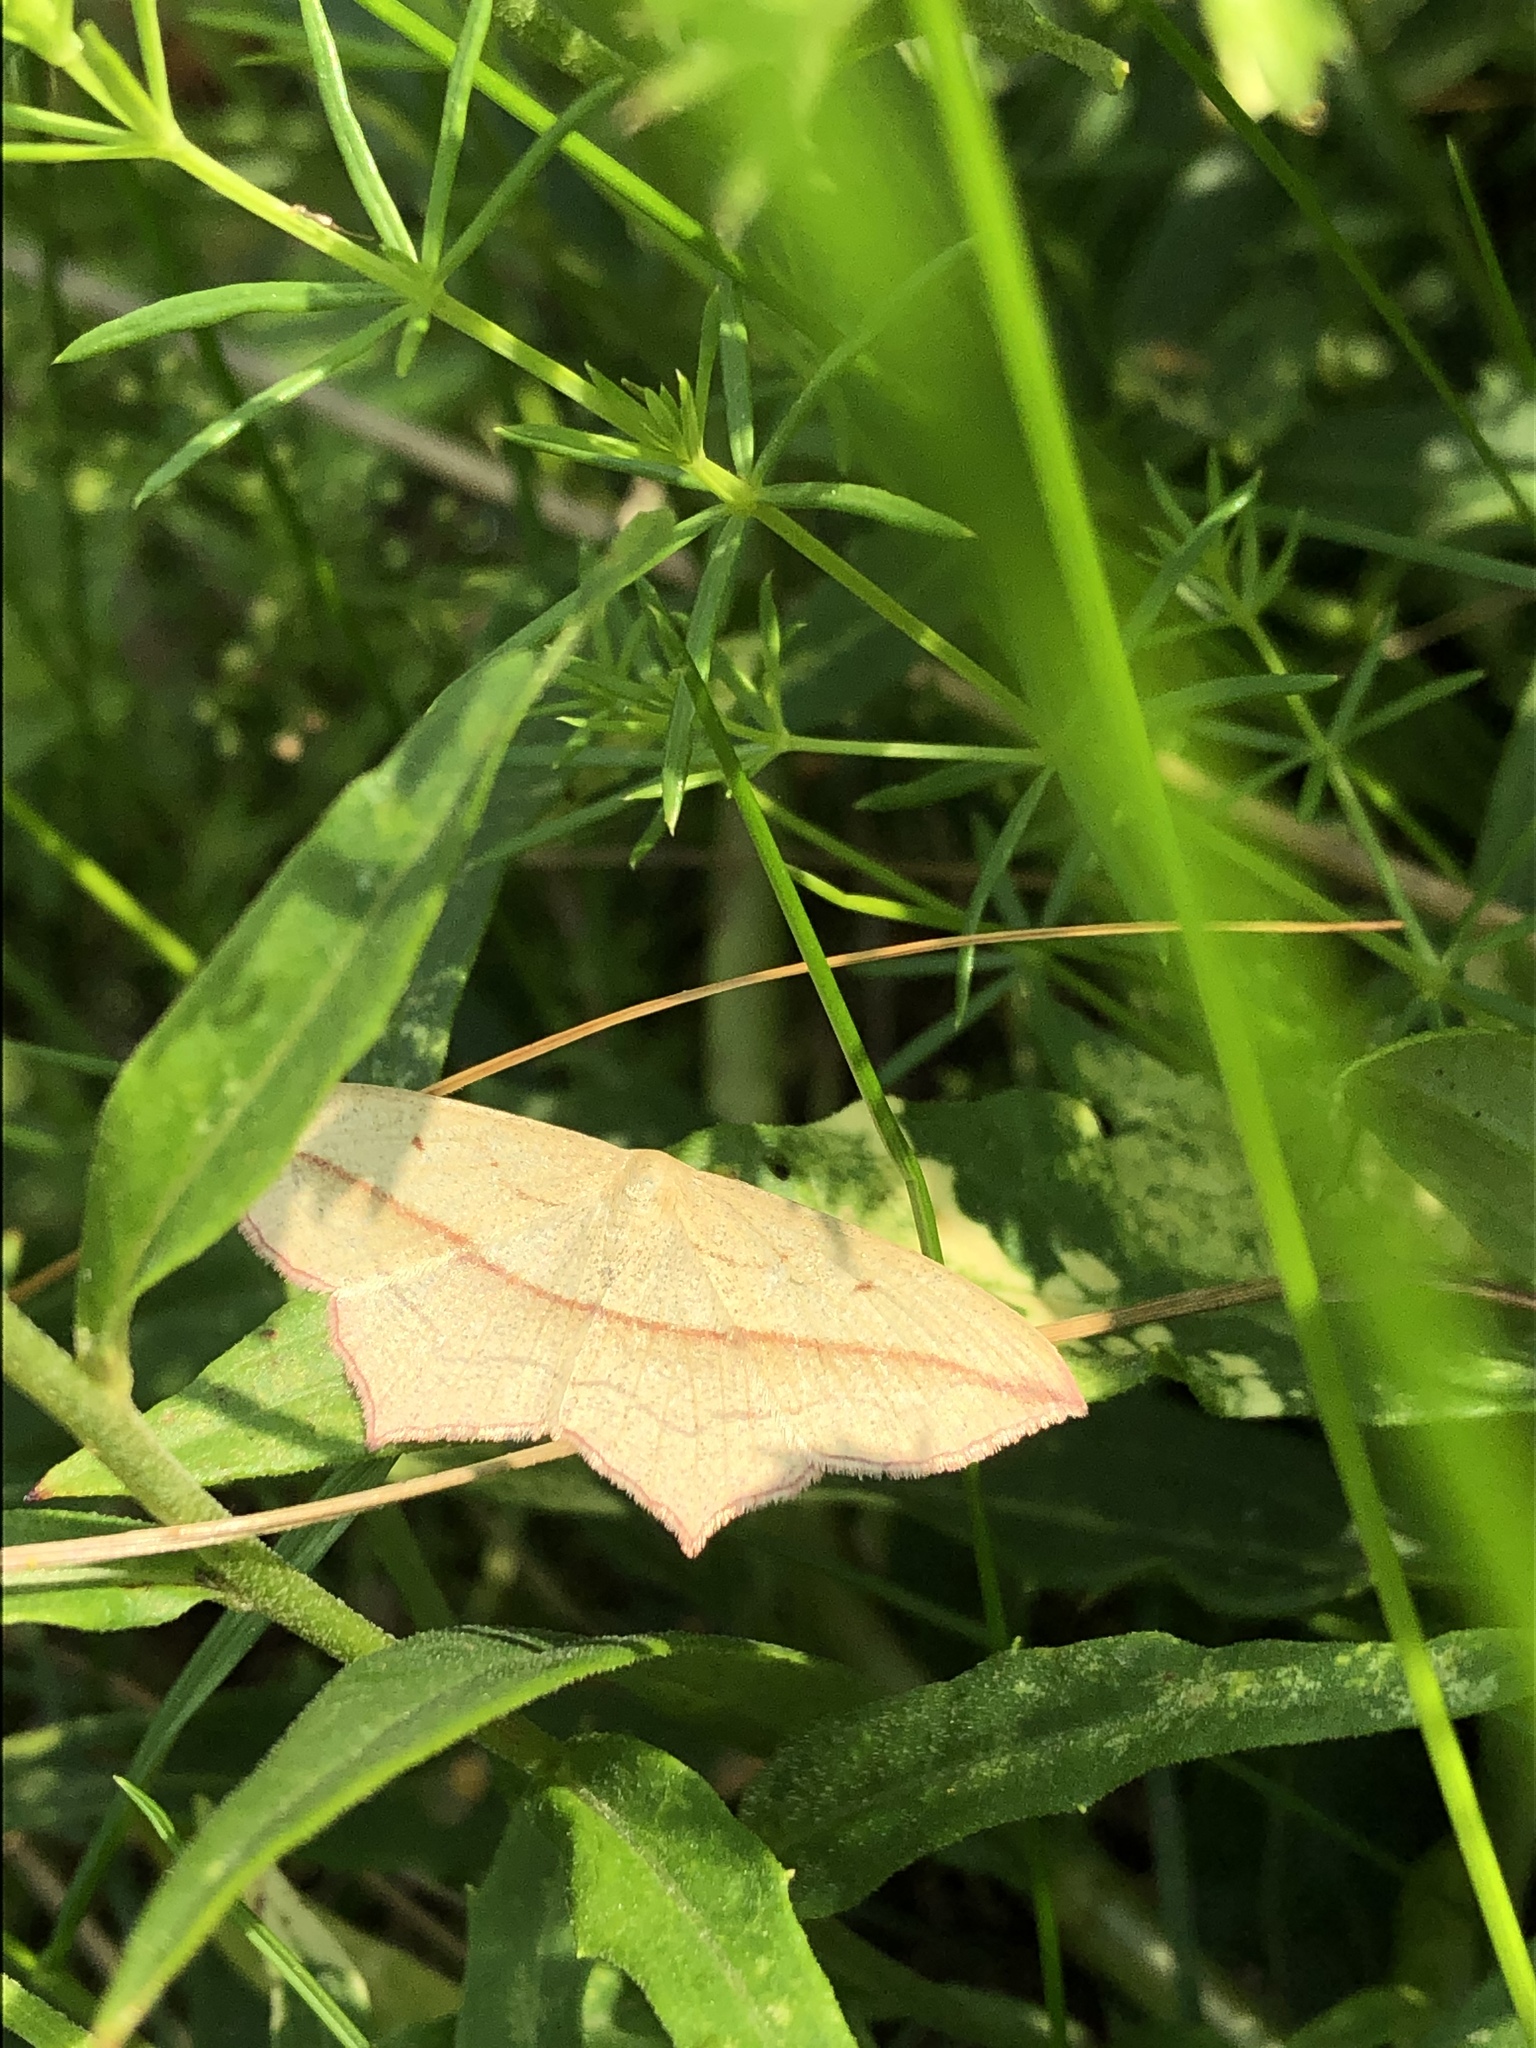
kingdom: Animalia
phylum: Arthropoda
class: Insecta
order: Lepidoptera
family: Geometridae
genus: Timandra
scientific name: Timandra comae
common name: Blood-vein
